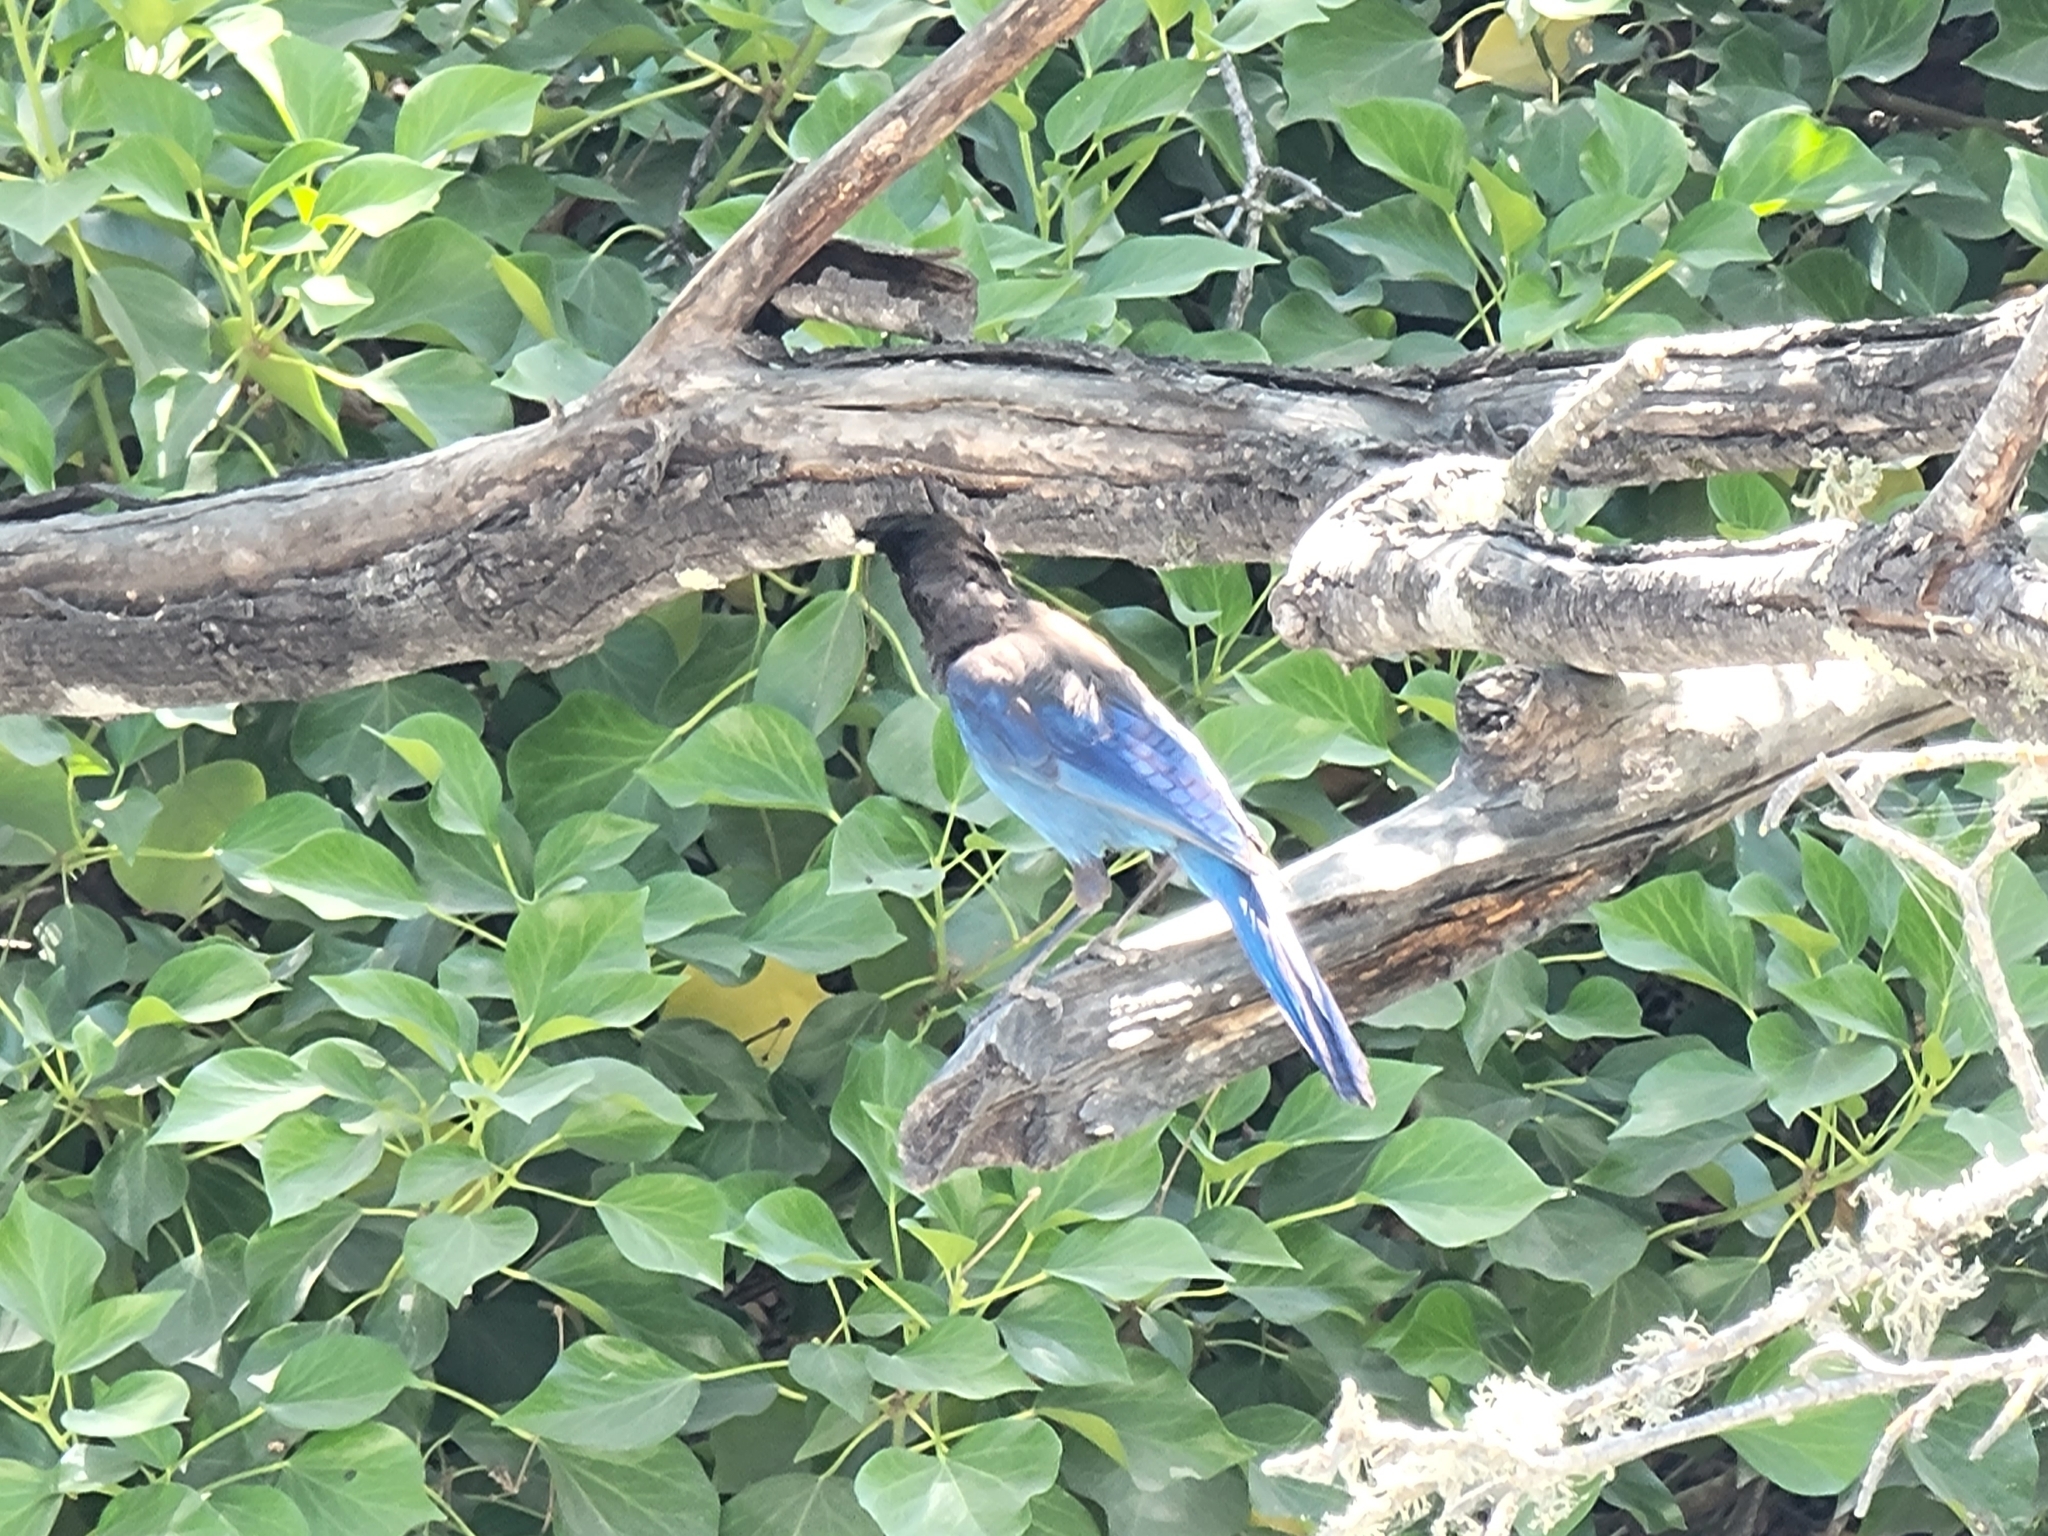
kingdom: Animalia
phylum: Chordata
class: Aves
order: Passeriformes
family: Corvidae
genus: Cyanocitta
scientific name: Cyanocitta stelleri
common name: Steller's jay
